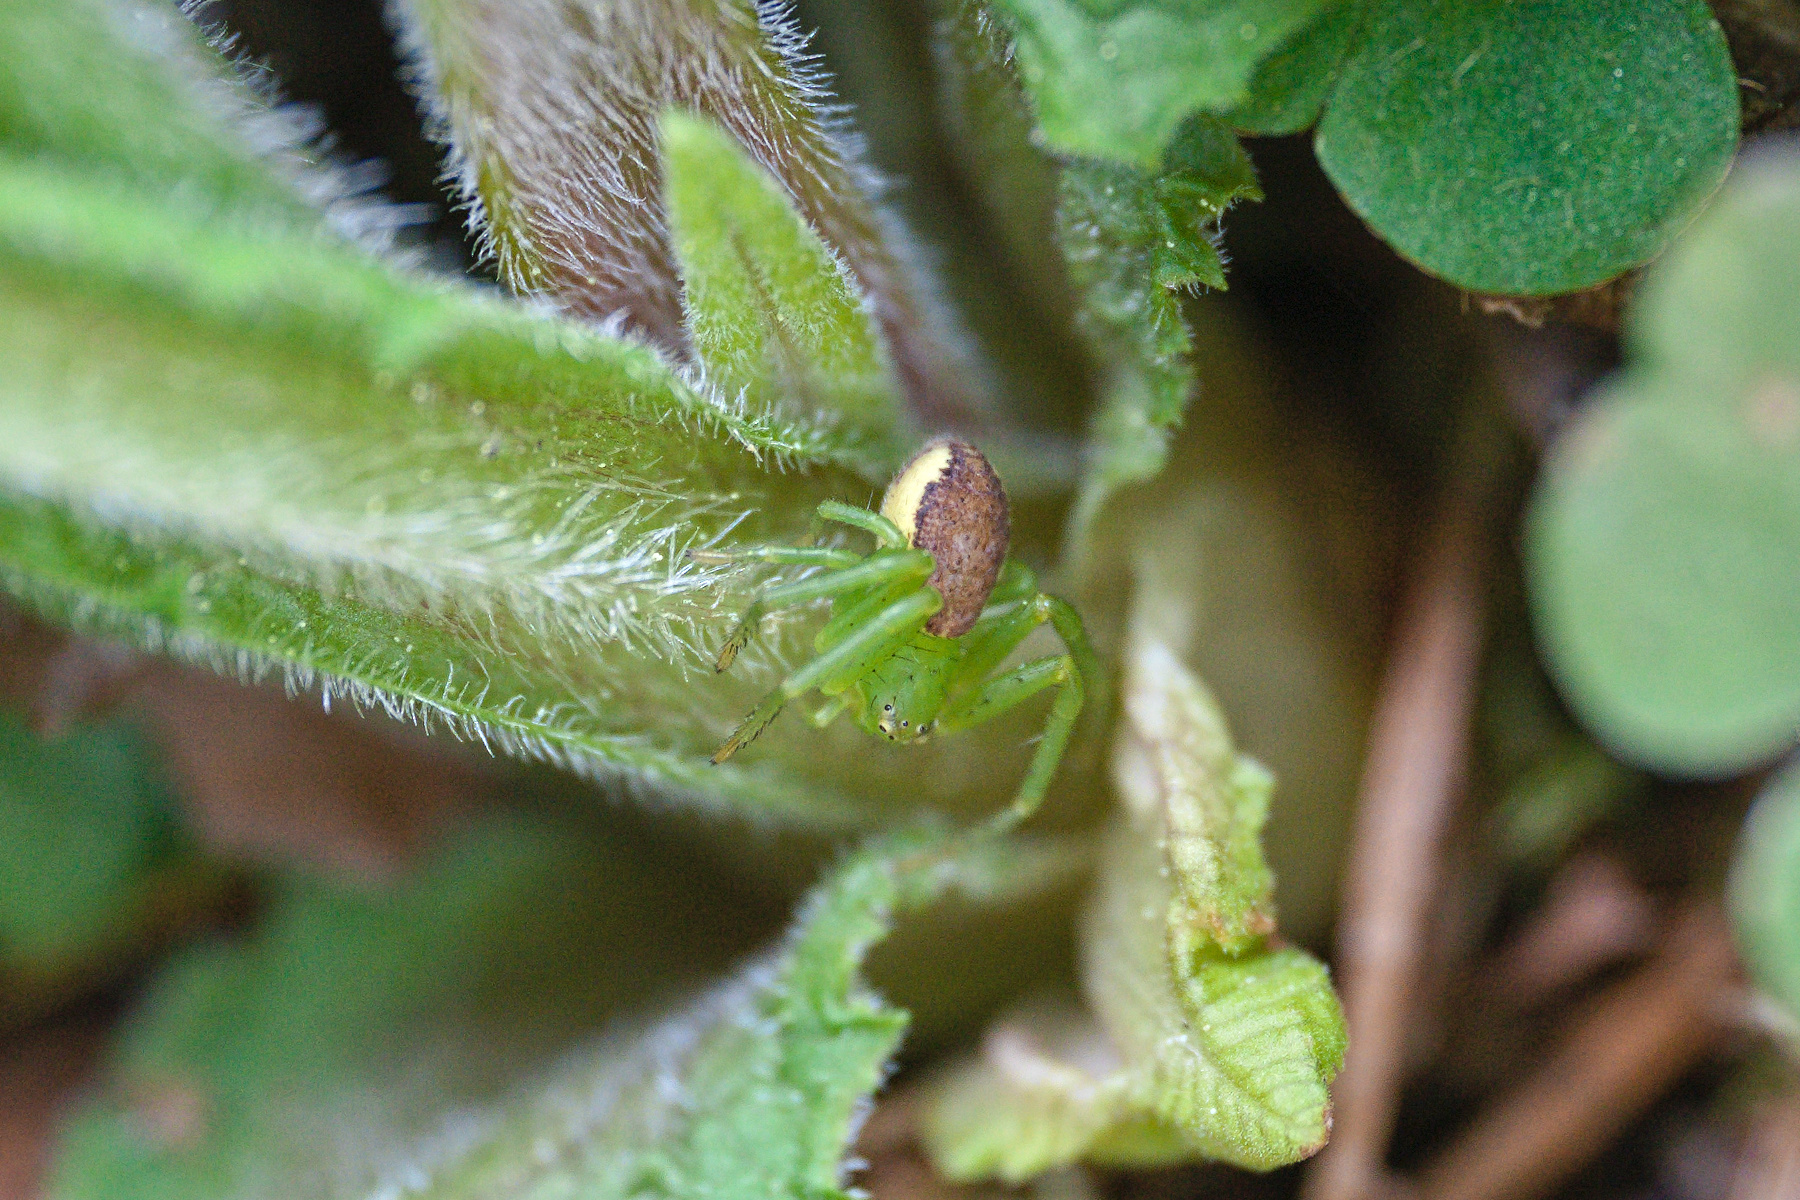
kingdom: Animalia
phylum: Arthropoda
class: Arachnida
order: Araneae
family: Thomisidae
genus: Diaea
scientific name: Diaea dorsata
